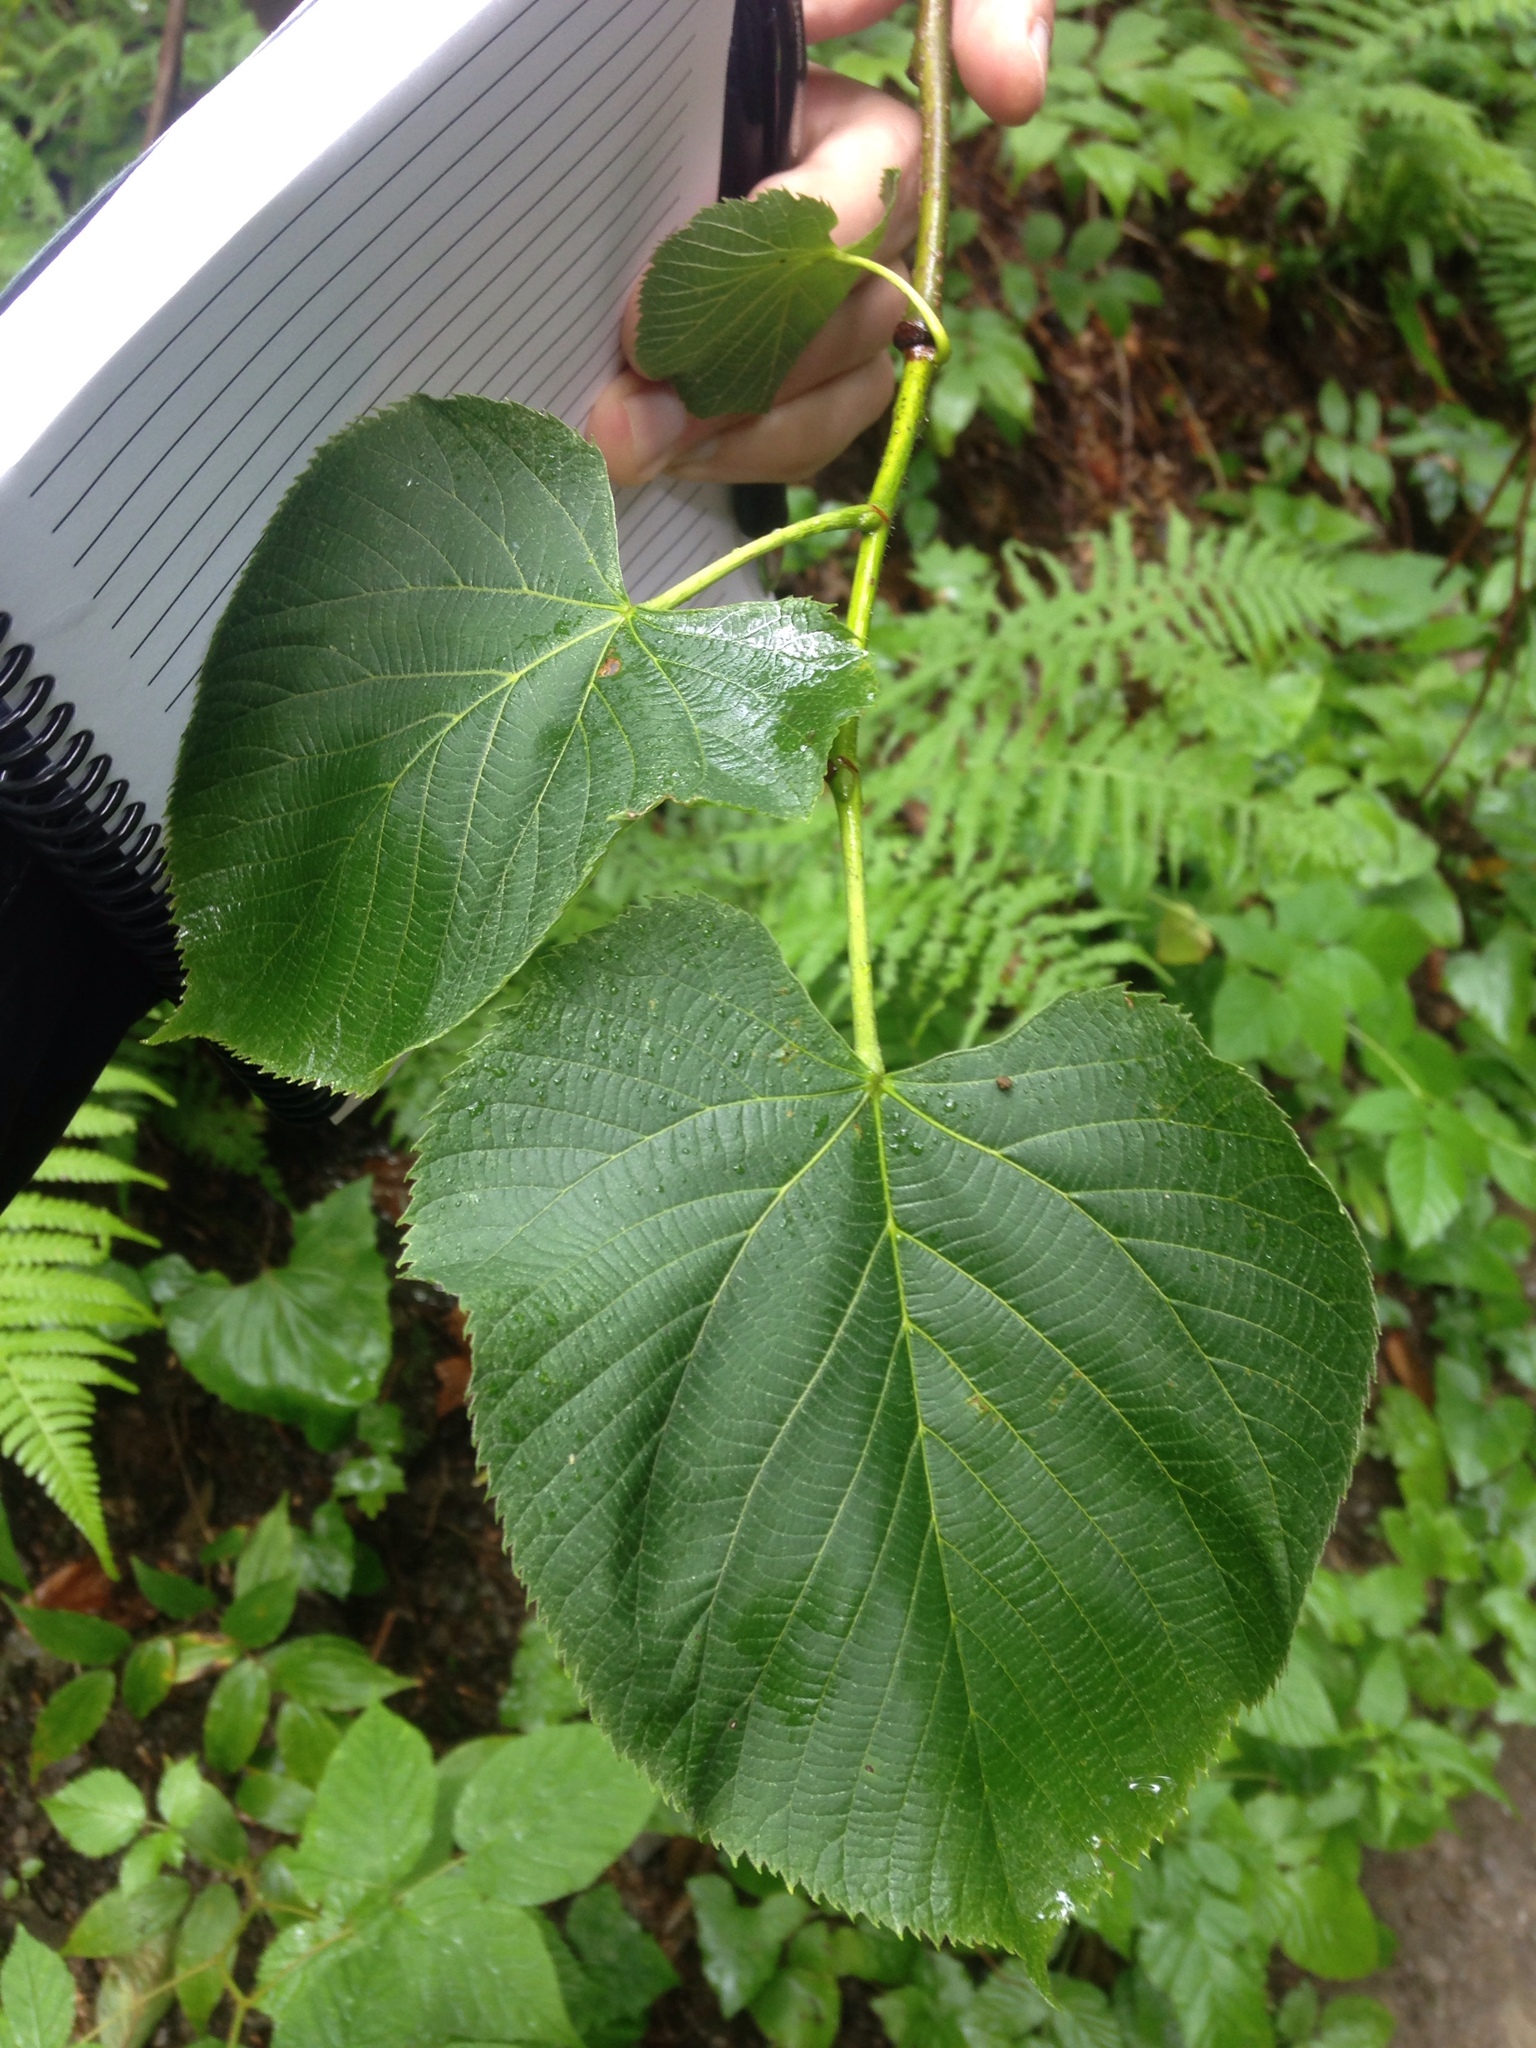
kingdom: Plantae
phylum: Tracheophyta
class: Magnoliopsida
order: Malvales
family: Malvaceae
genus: Tilia
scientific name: Tilia americana
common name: Basswood
